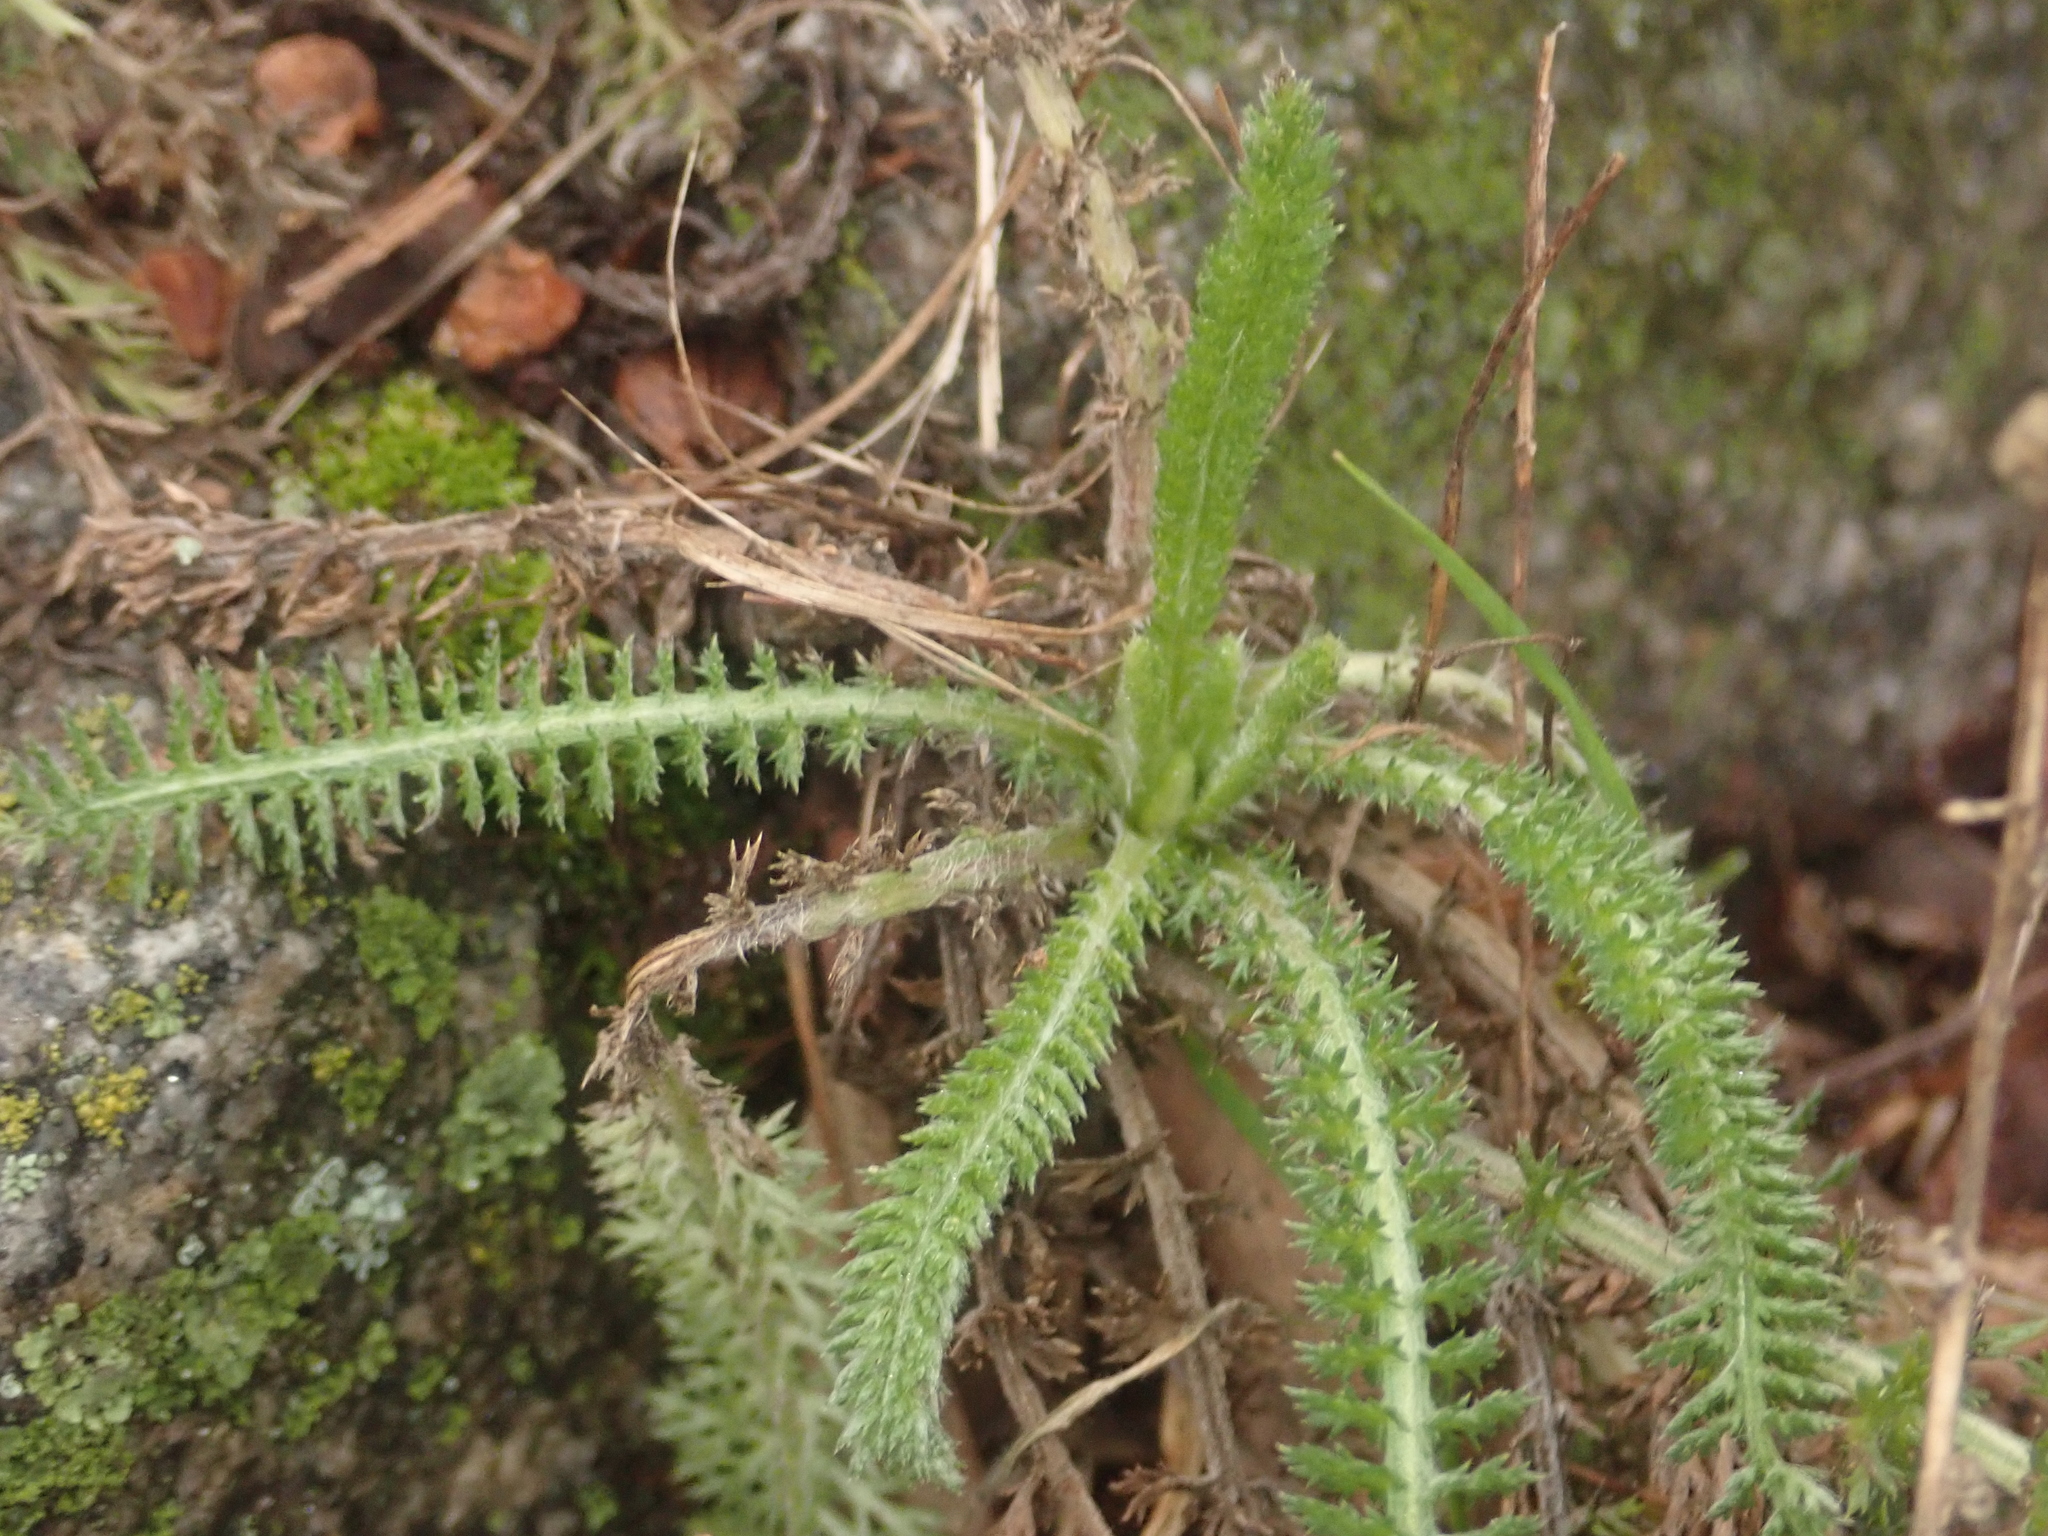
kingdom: Plantae
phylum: Tracheophyta
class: Magnoliopsida
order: Asterales
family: Asteraceae
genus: Achillea
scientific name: Achillea millefolium
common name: Yarrow
